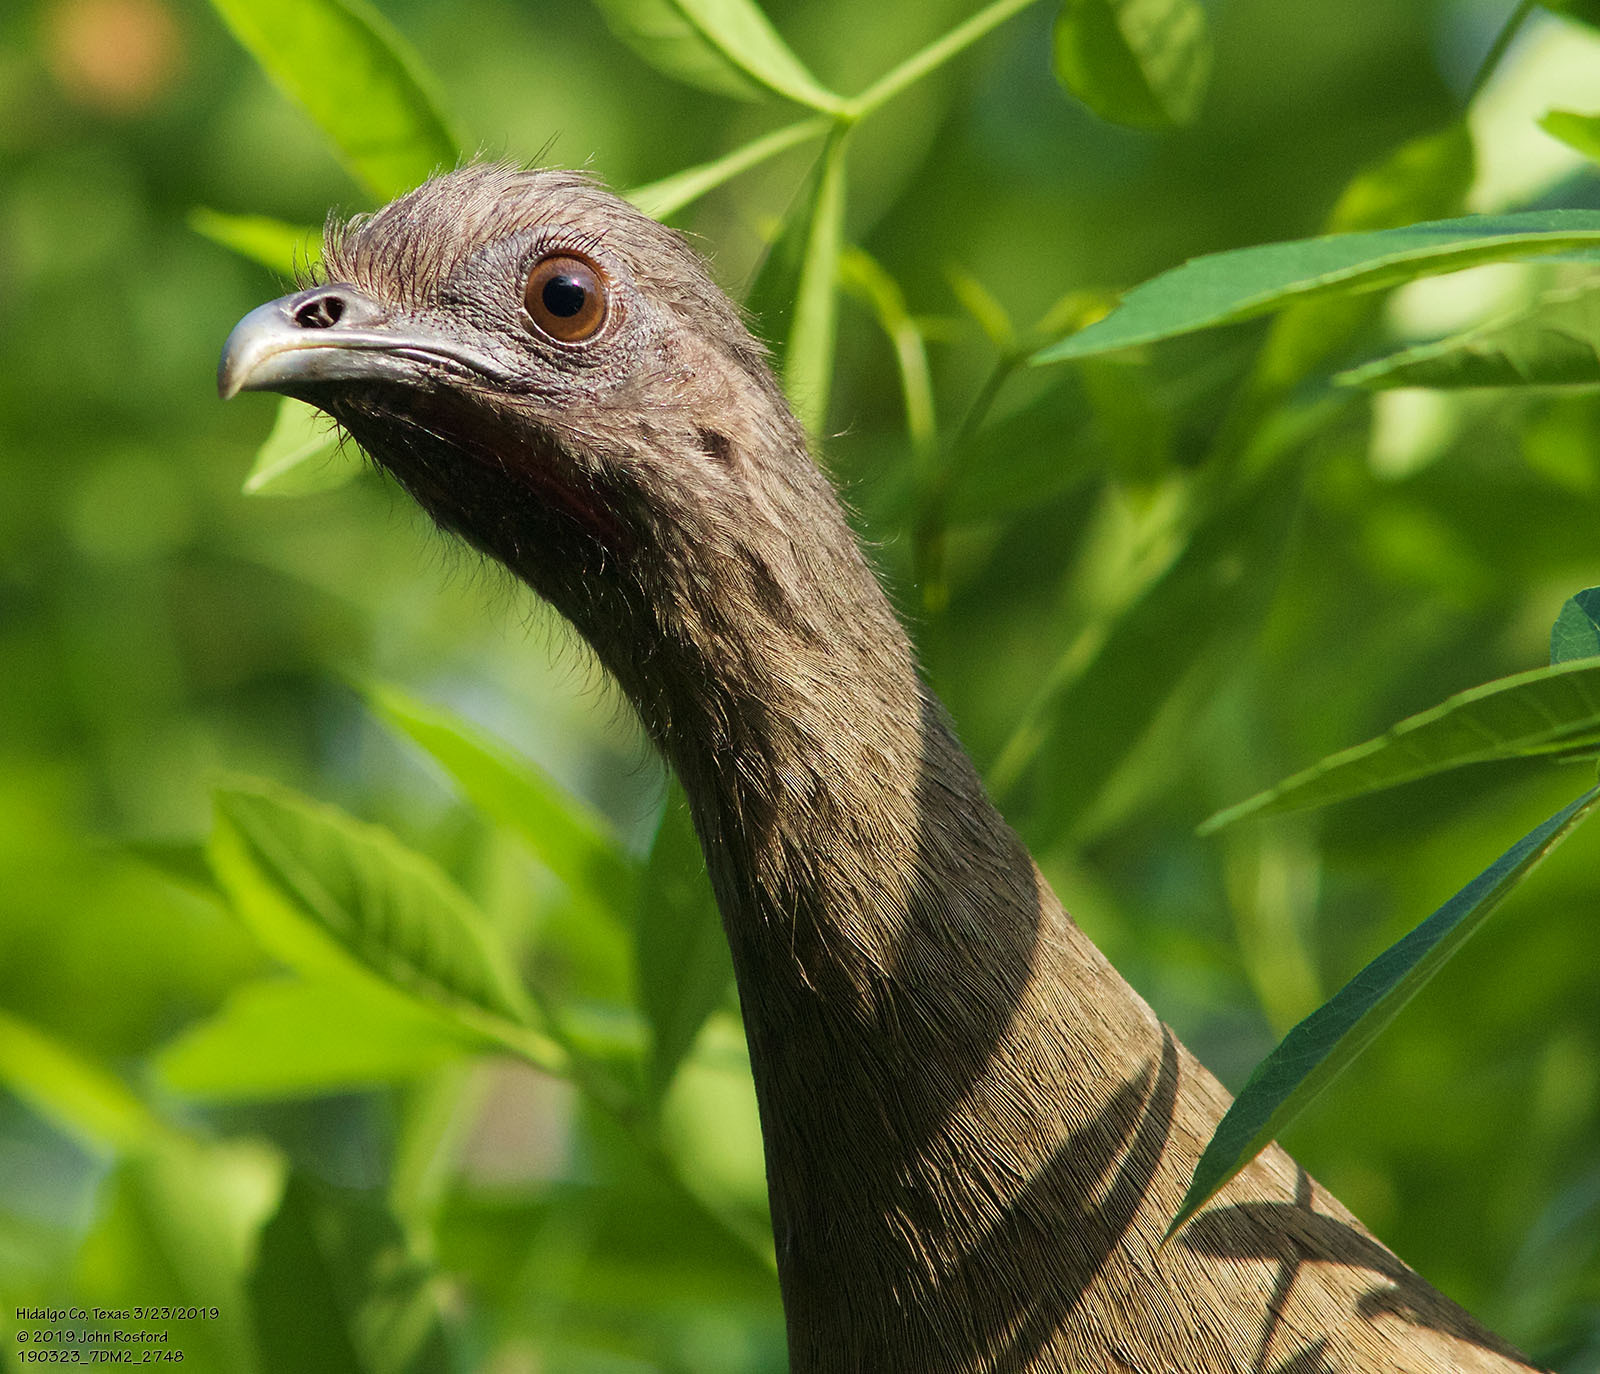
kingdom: Animalia
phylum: Chordata
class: Aves
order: Galliformes
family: Cracidae
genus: Ortalis
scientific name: Ortalis vetula
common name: Plain chachalaca
